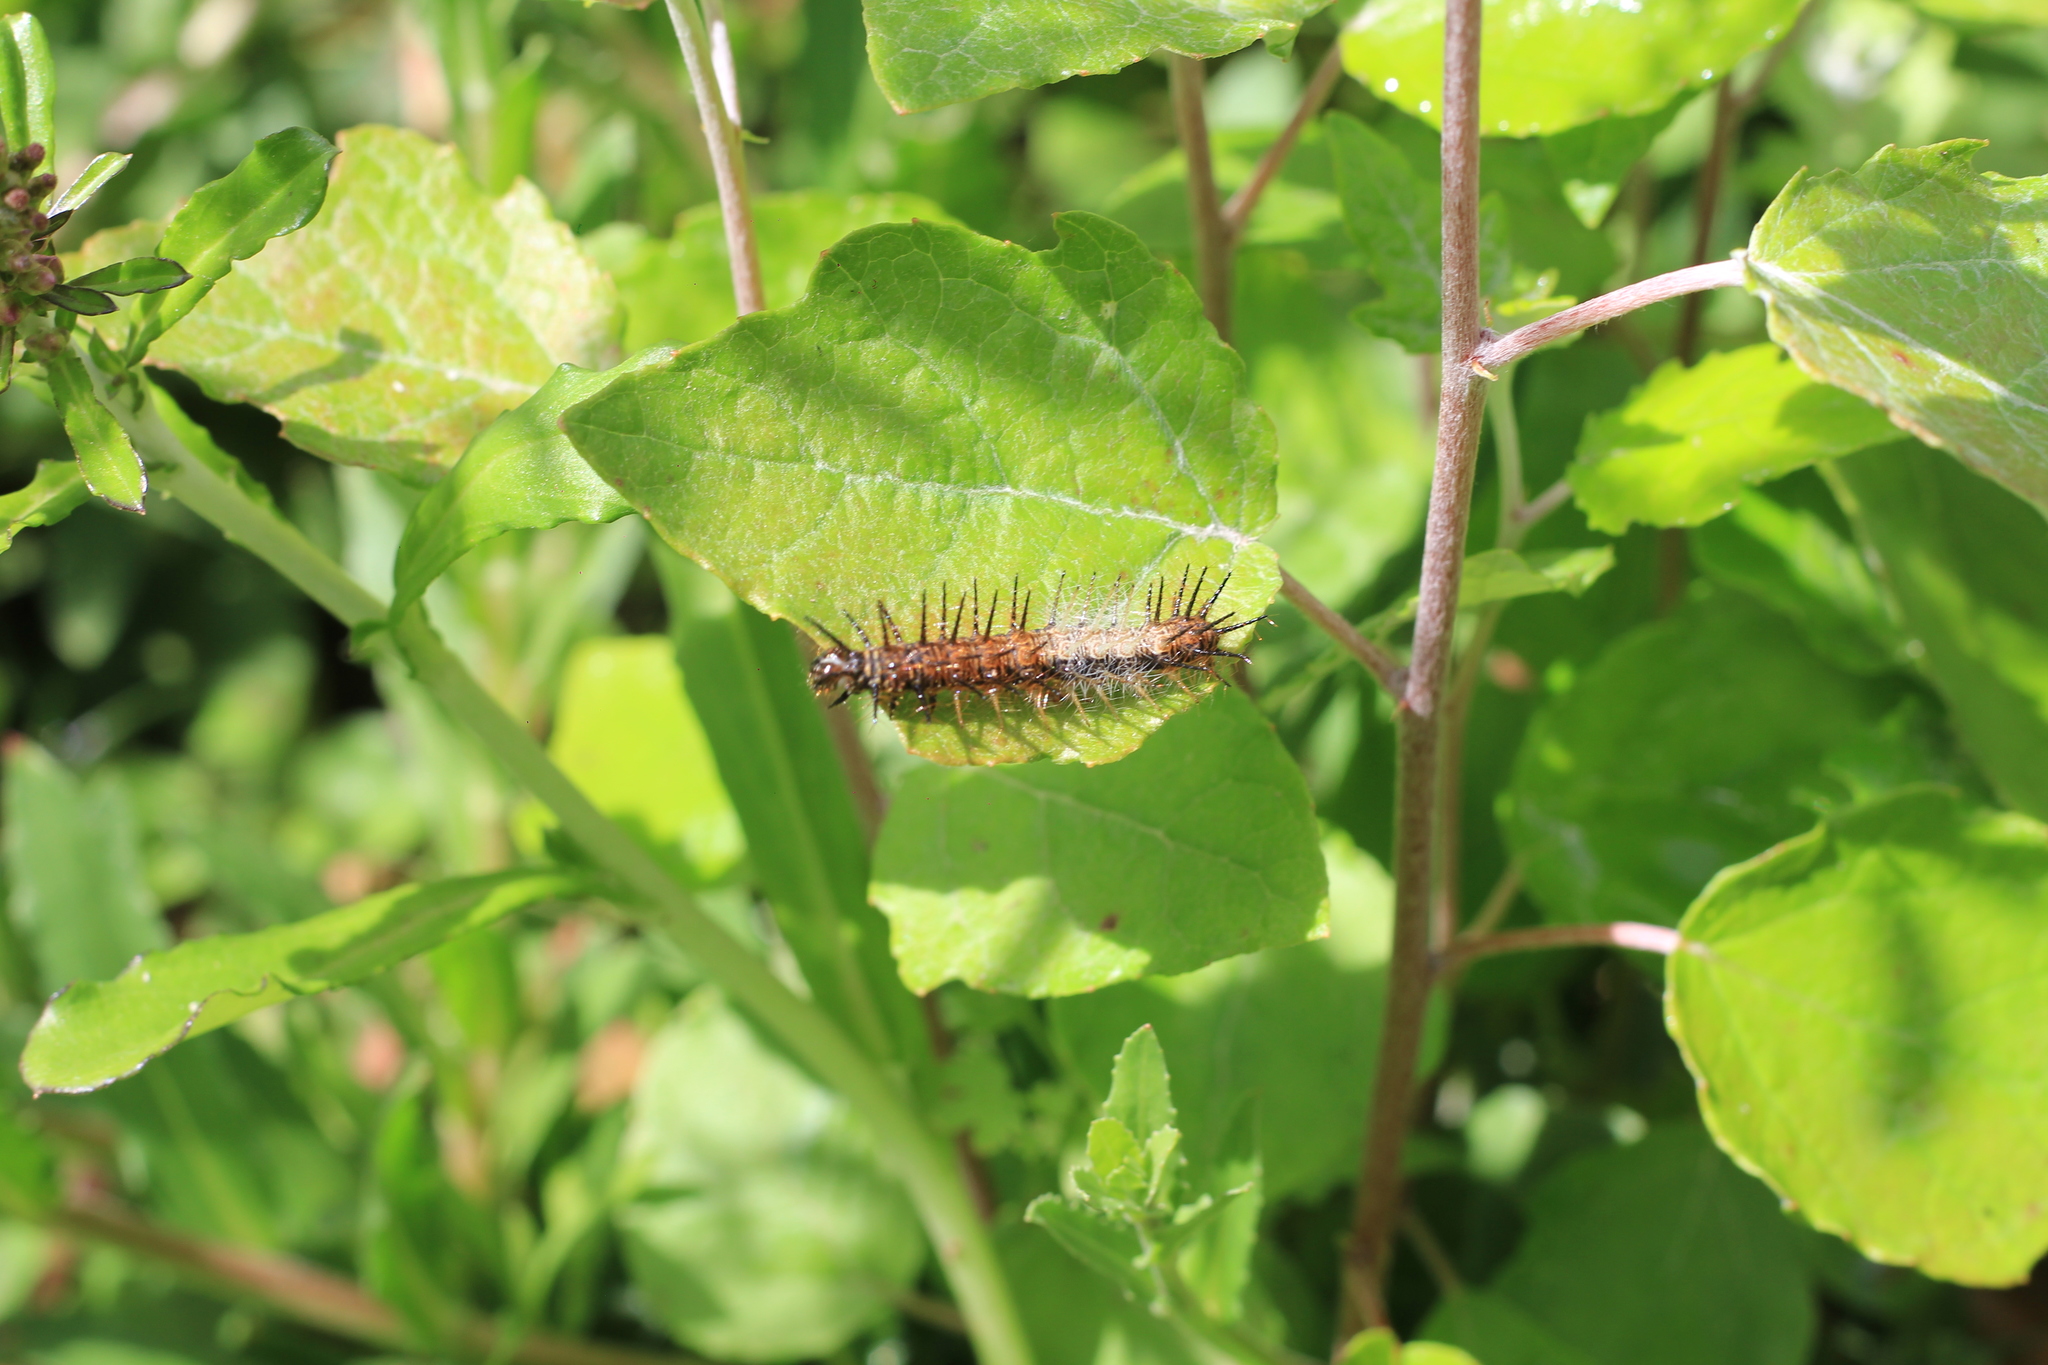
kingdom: Animalia
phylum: Arthropoda
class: Insecta
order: Lepidoptera
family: Nymphalidae
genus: Actinote
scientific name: Actinote
